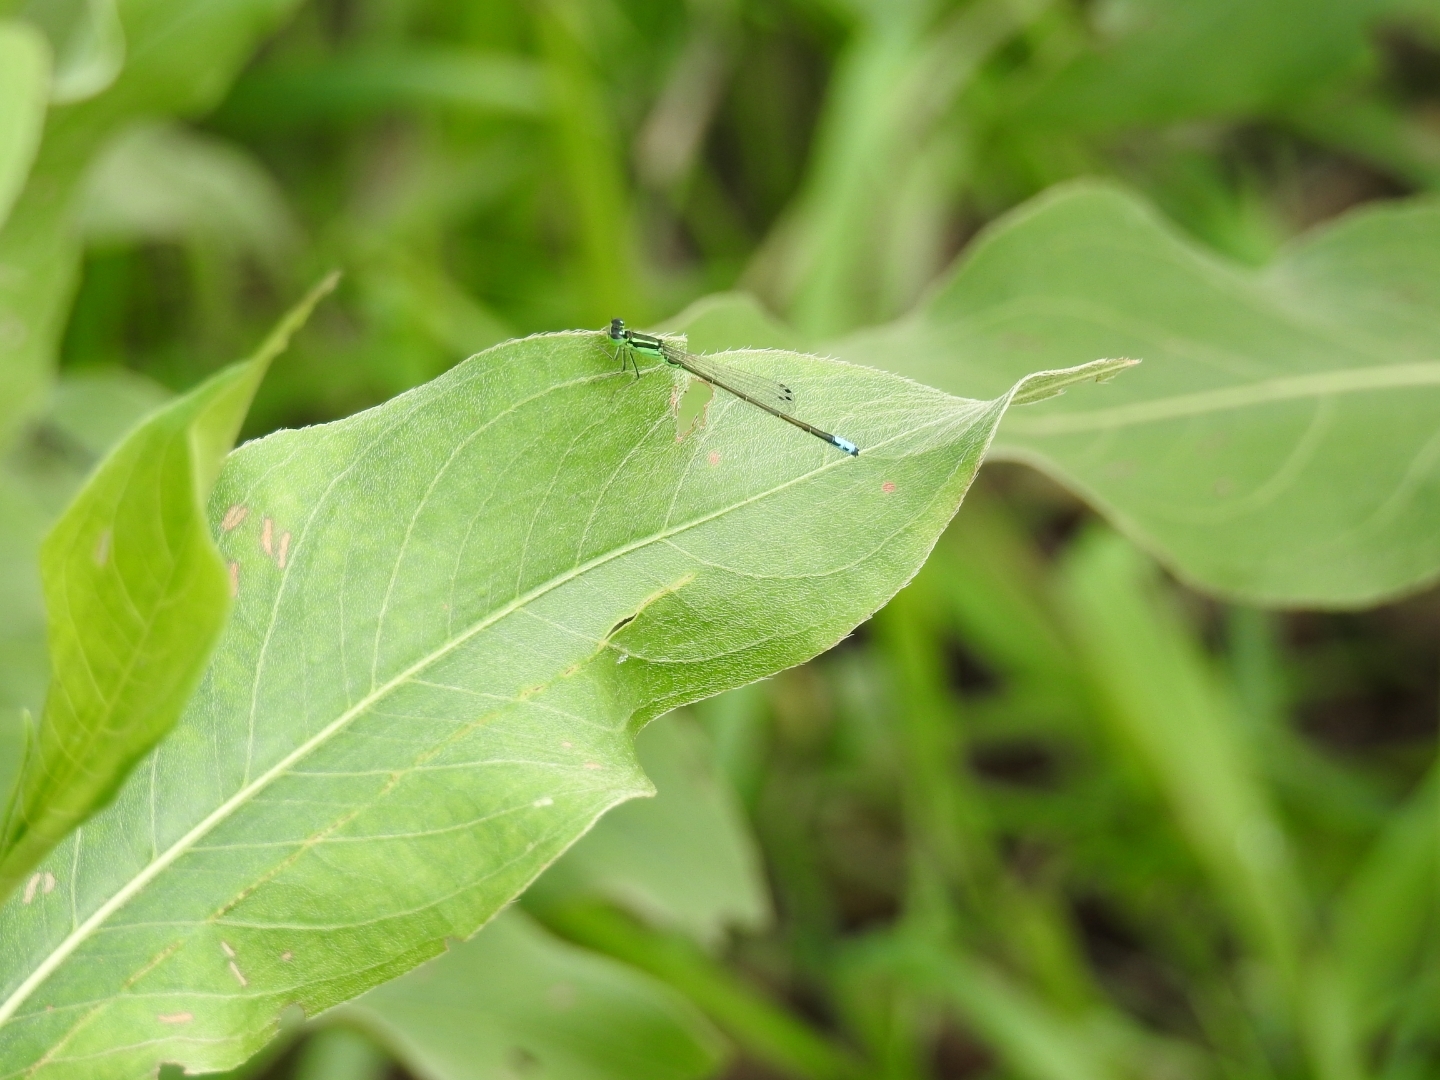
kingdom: Animalia
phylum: Arthropoda
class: Insecta
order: Odonata
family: Coenagrionidae
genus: Ischnura
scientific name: Ischnura verticalis
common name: Eastern forktail
